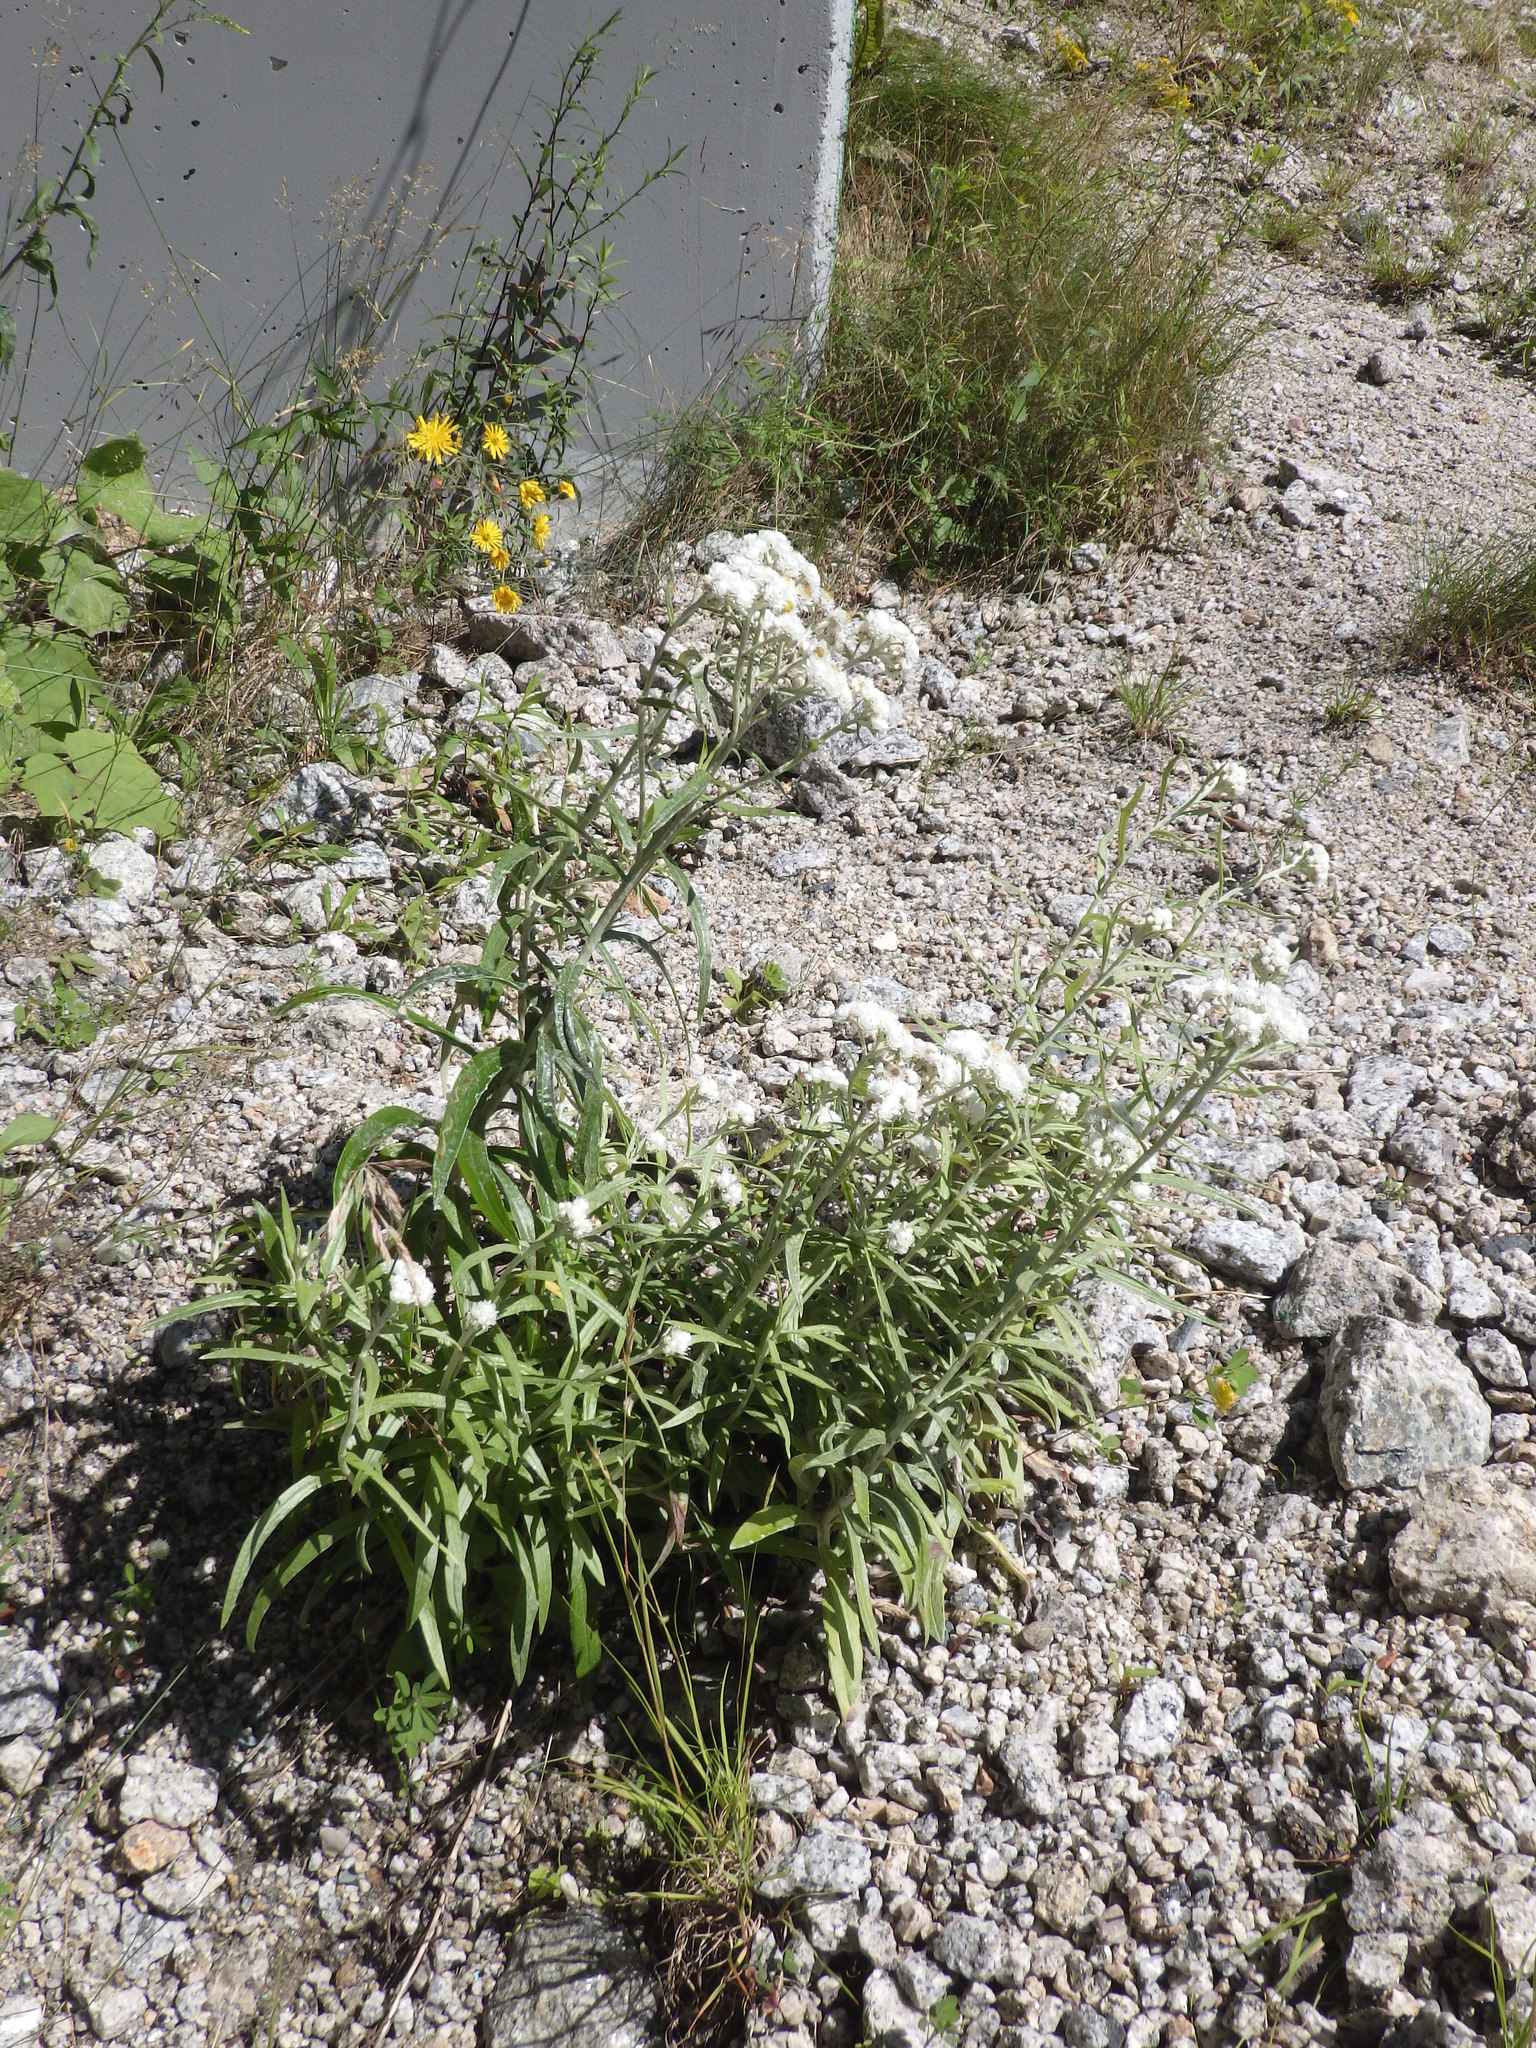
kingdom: Plantae
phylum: Tracheophyta
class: Magnoliopsida
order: Asterales
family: Asteraceae
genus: Anaphalis
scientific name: Anaphalis margaritacea
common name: Pearly everlasting
